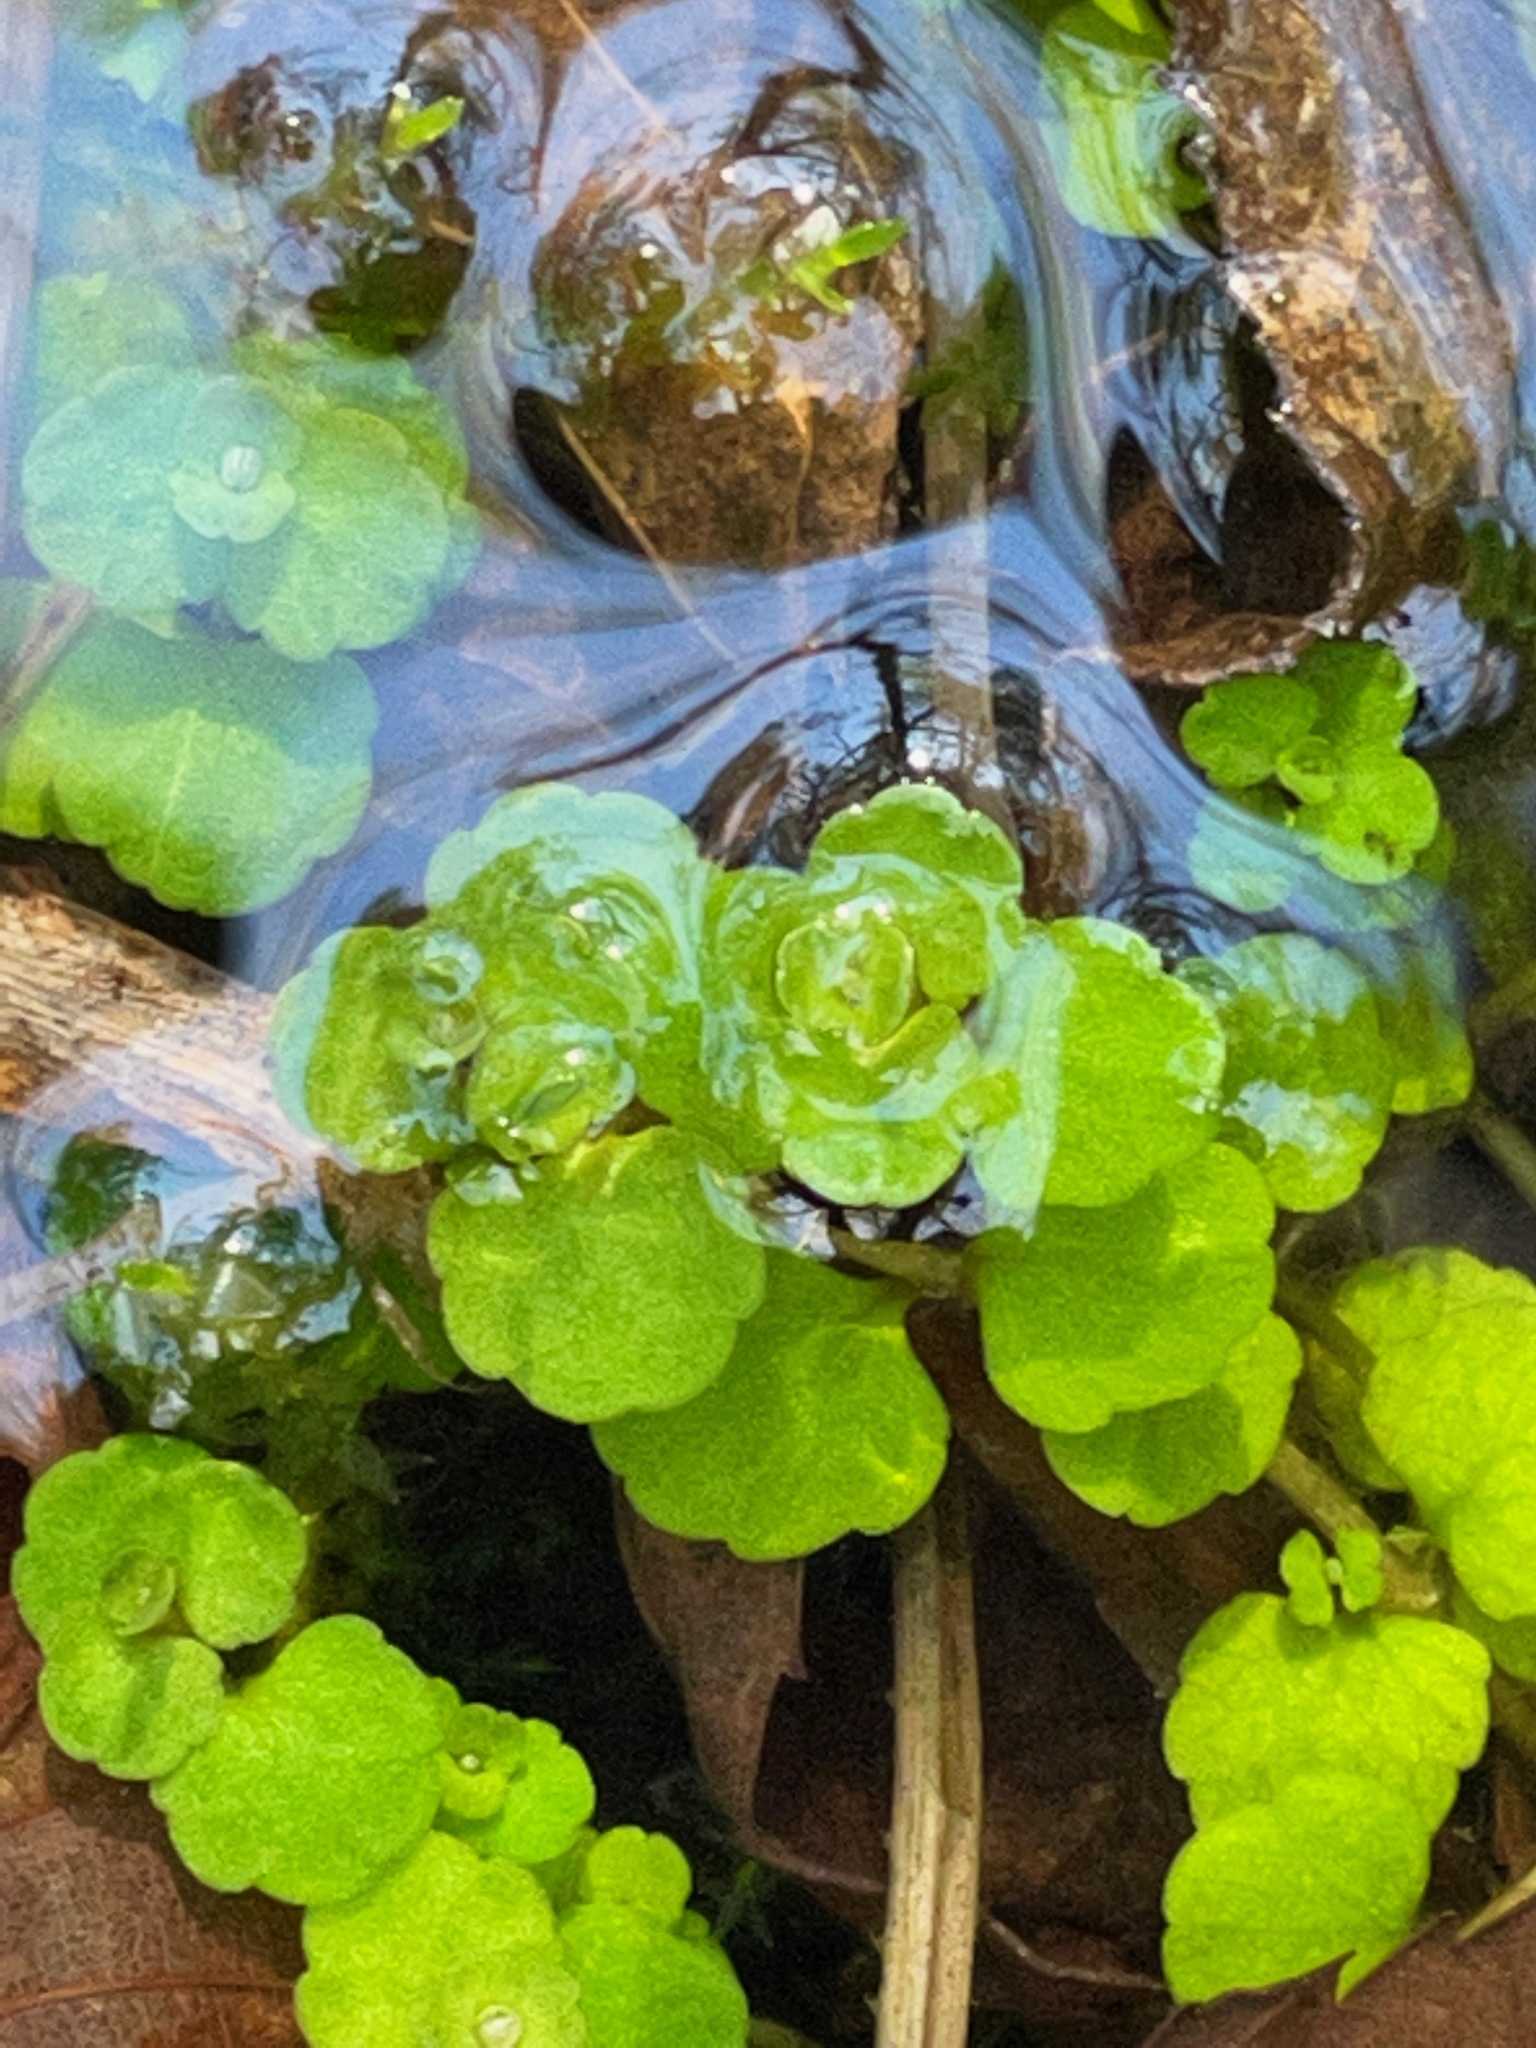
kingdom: Plantae
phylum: Tracheophyta
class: Magnoliopsida
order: Saxifragales
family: Saxifragaceae
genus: Chrysosplenium
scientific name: Chrysosplenium americanum
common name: American golden-saxifrage
